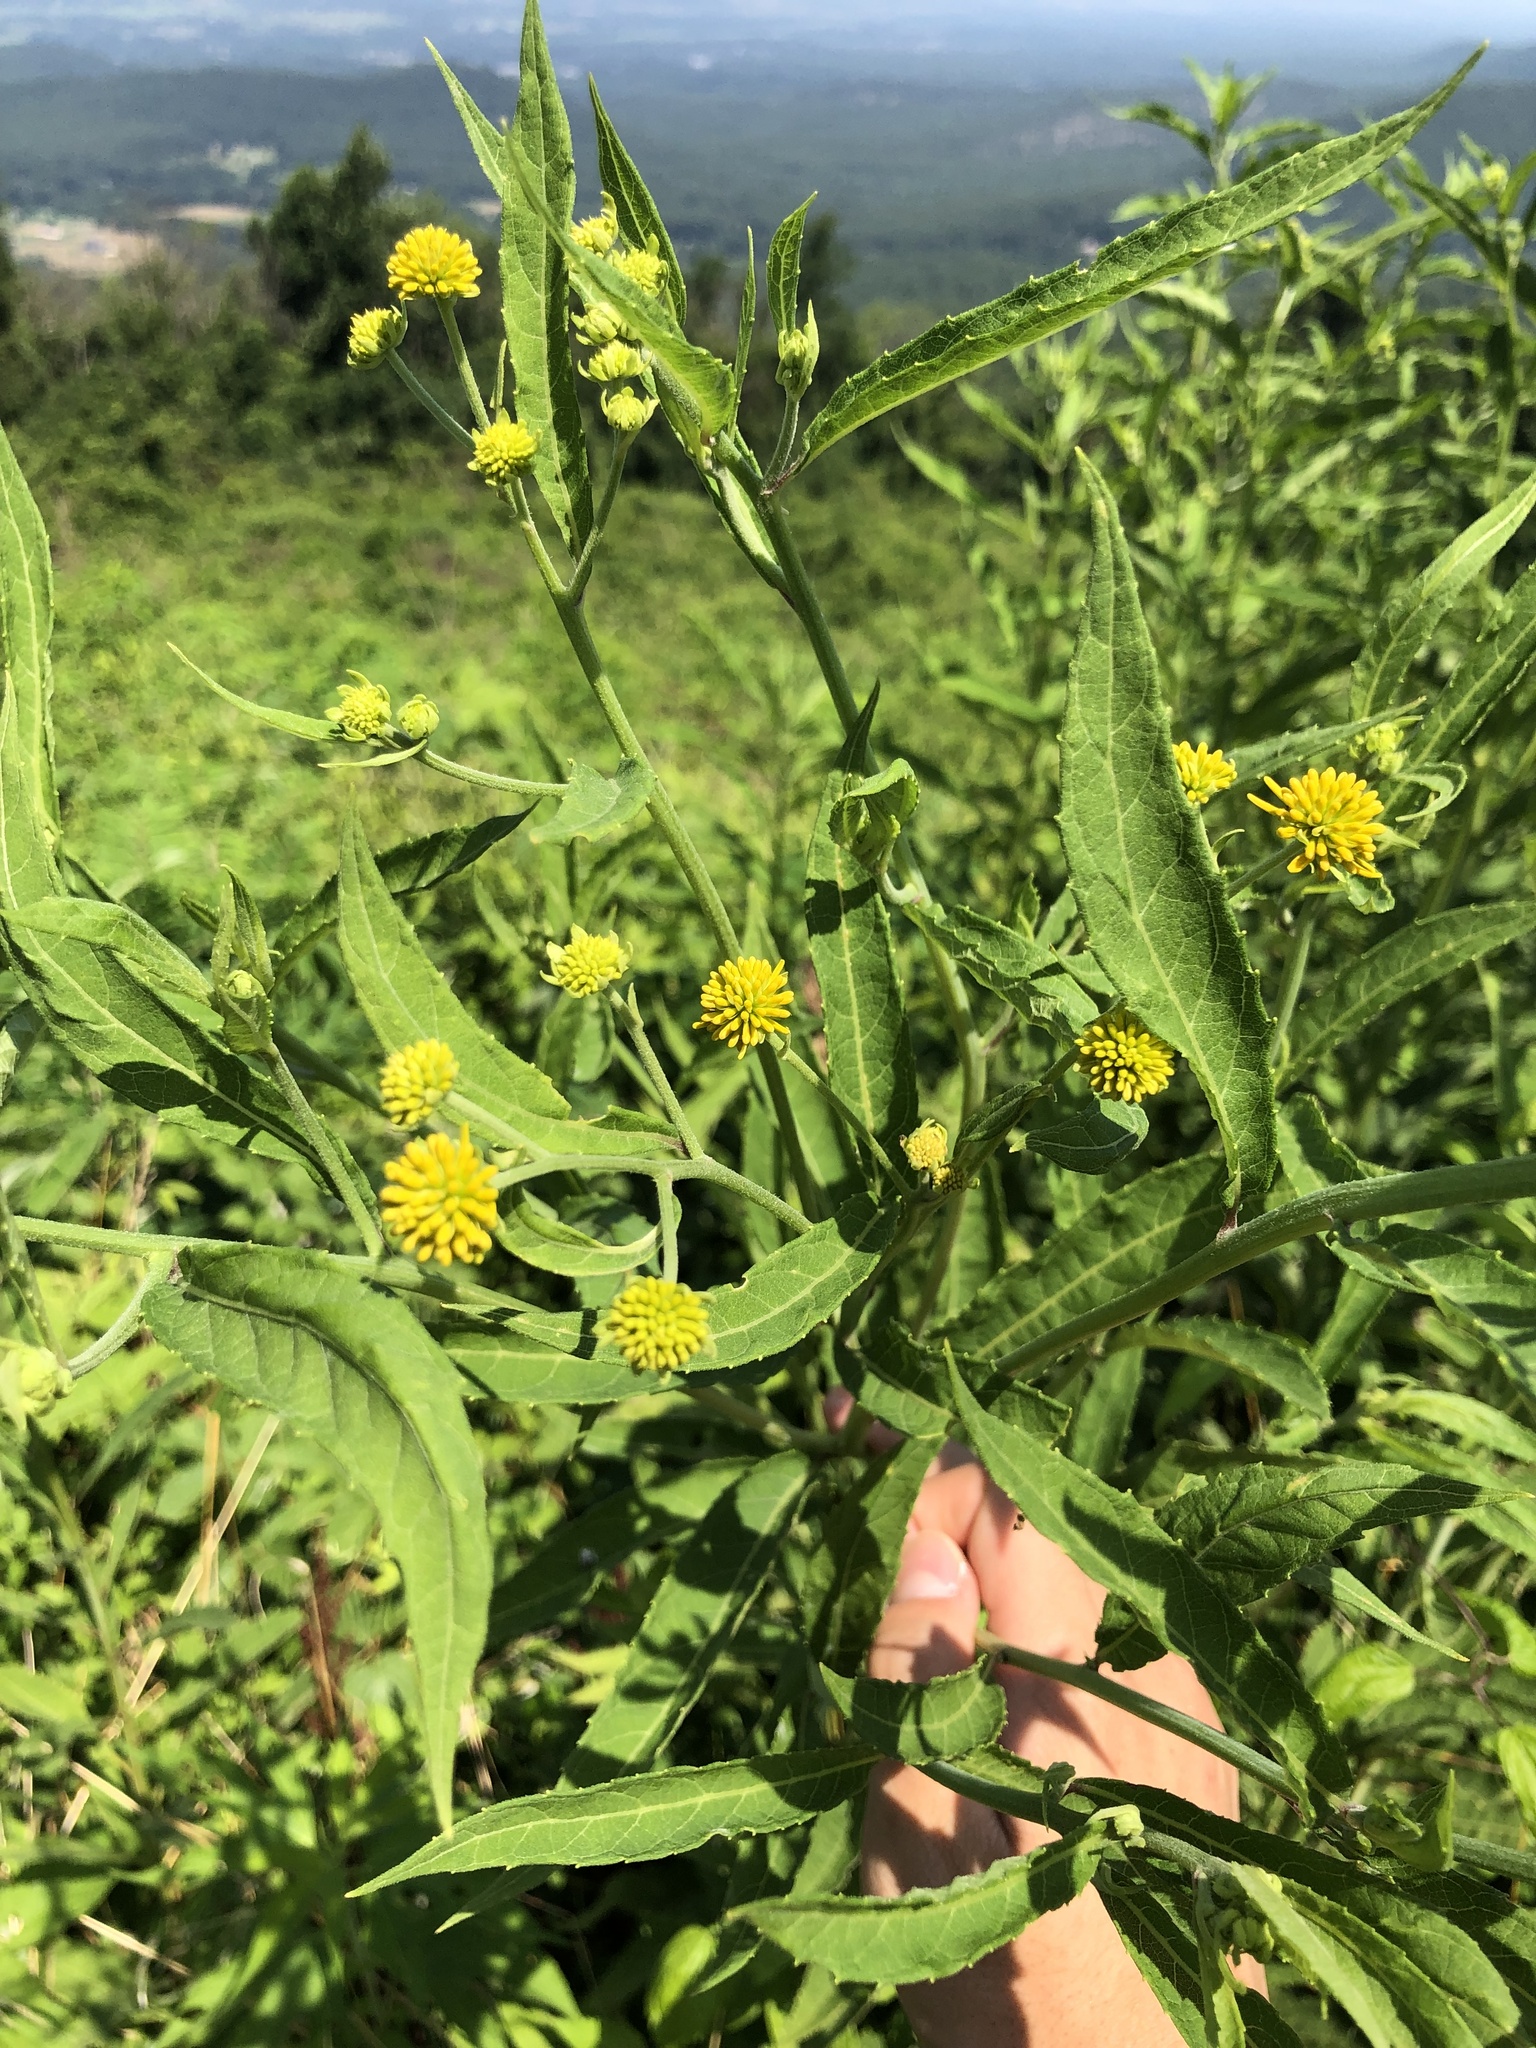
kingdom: Plantae
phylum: Tracheophyta
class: Magnoliopsida
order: Asterales
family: Asteraceae
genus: Verbesina
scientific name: Verbesina alternifolia
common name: Wingstem
